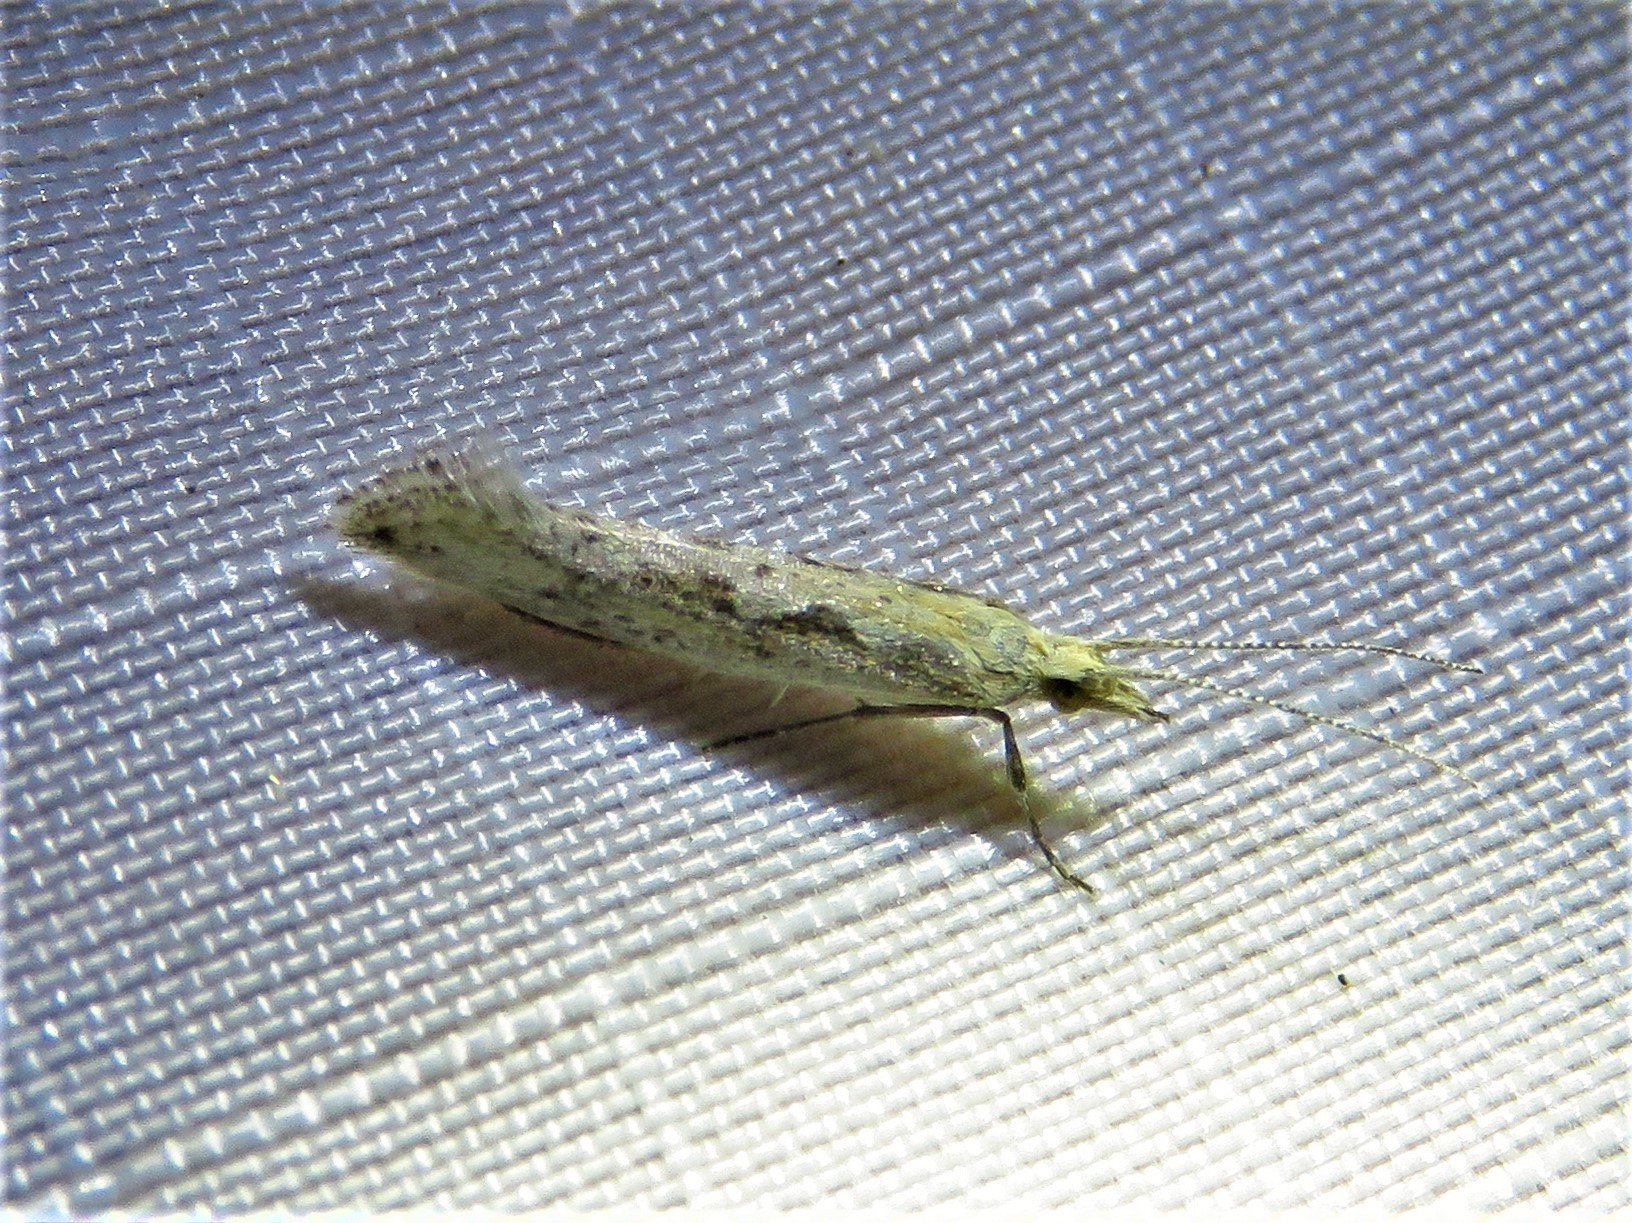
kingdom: Animalia
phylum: Arthropoda
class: Insecta
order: Lepidoptera
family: Plutellidae
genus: Plutella
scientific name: Plutella xylostella
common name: Diamond-back moth
